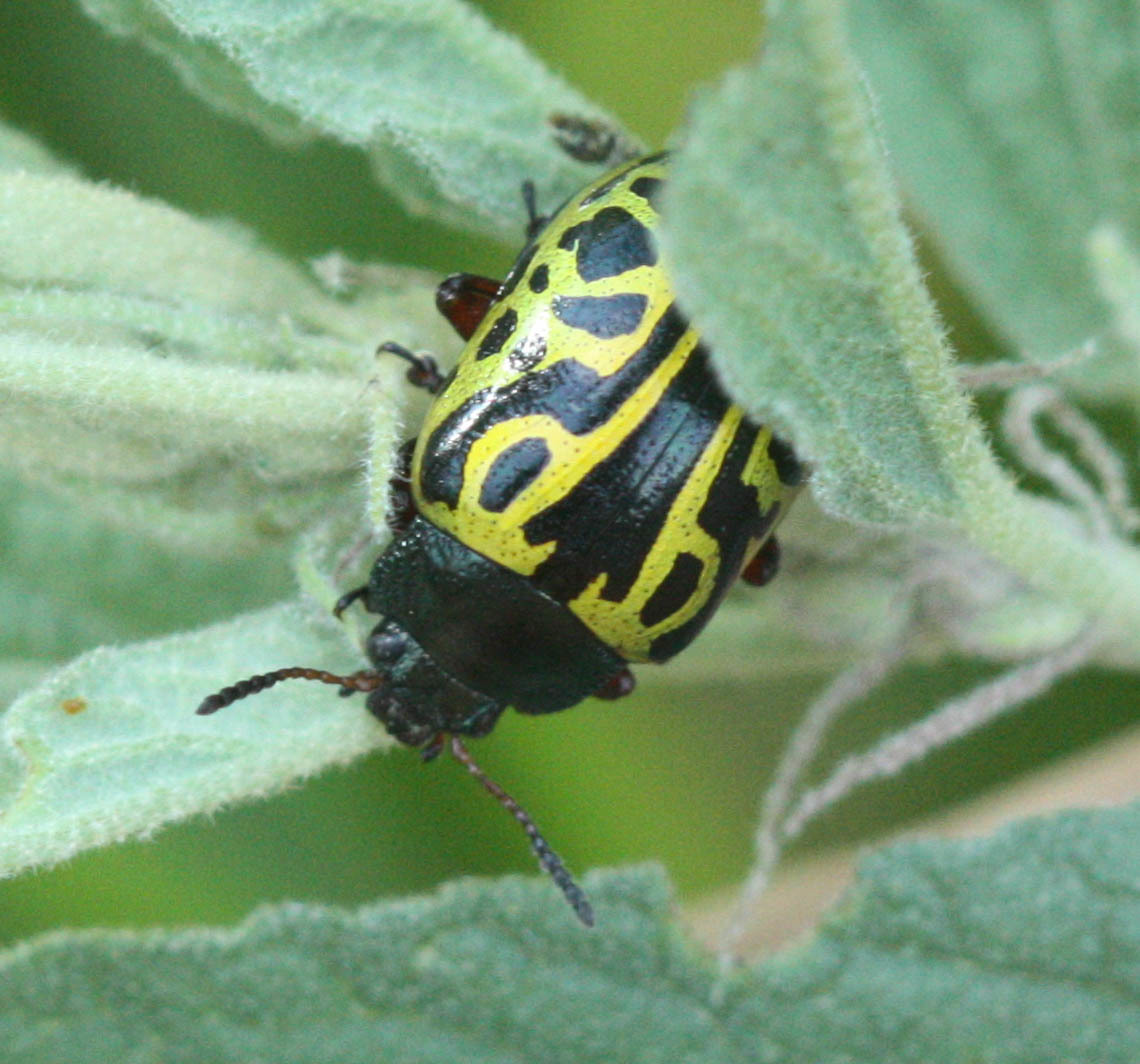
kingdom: Animalia
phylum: Arthropoda
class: Insecta
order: Coleoptera
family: Chrysomelidae
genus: Calligrapha
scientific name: Calligrapha serpentina
